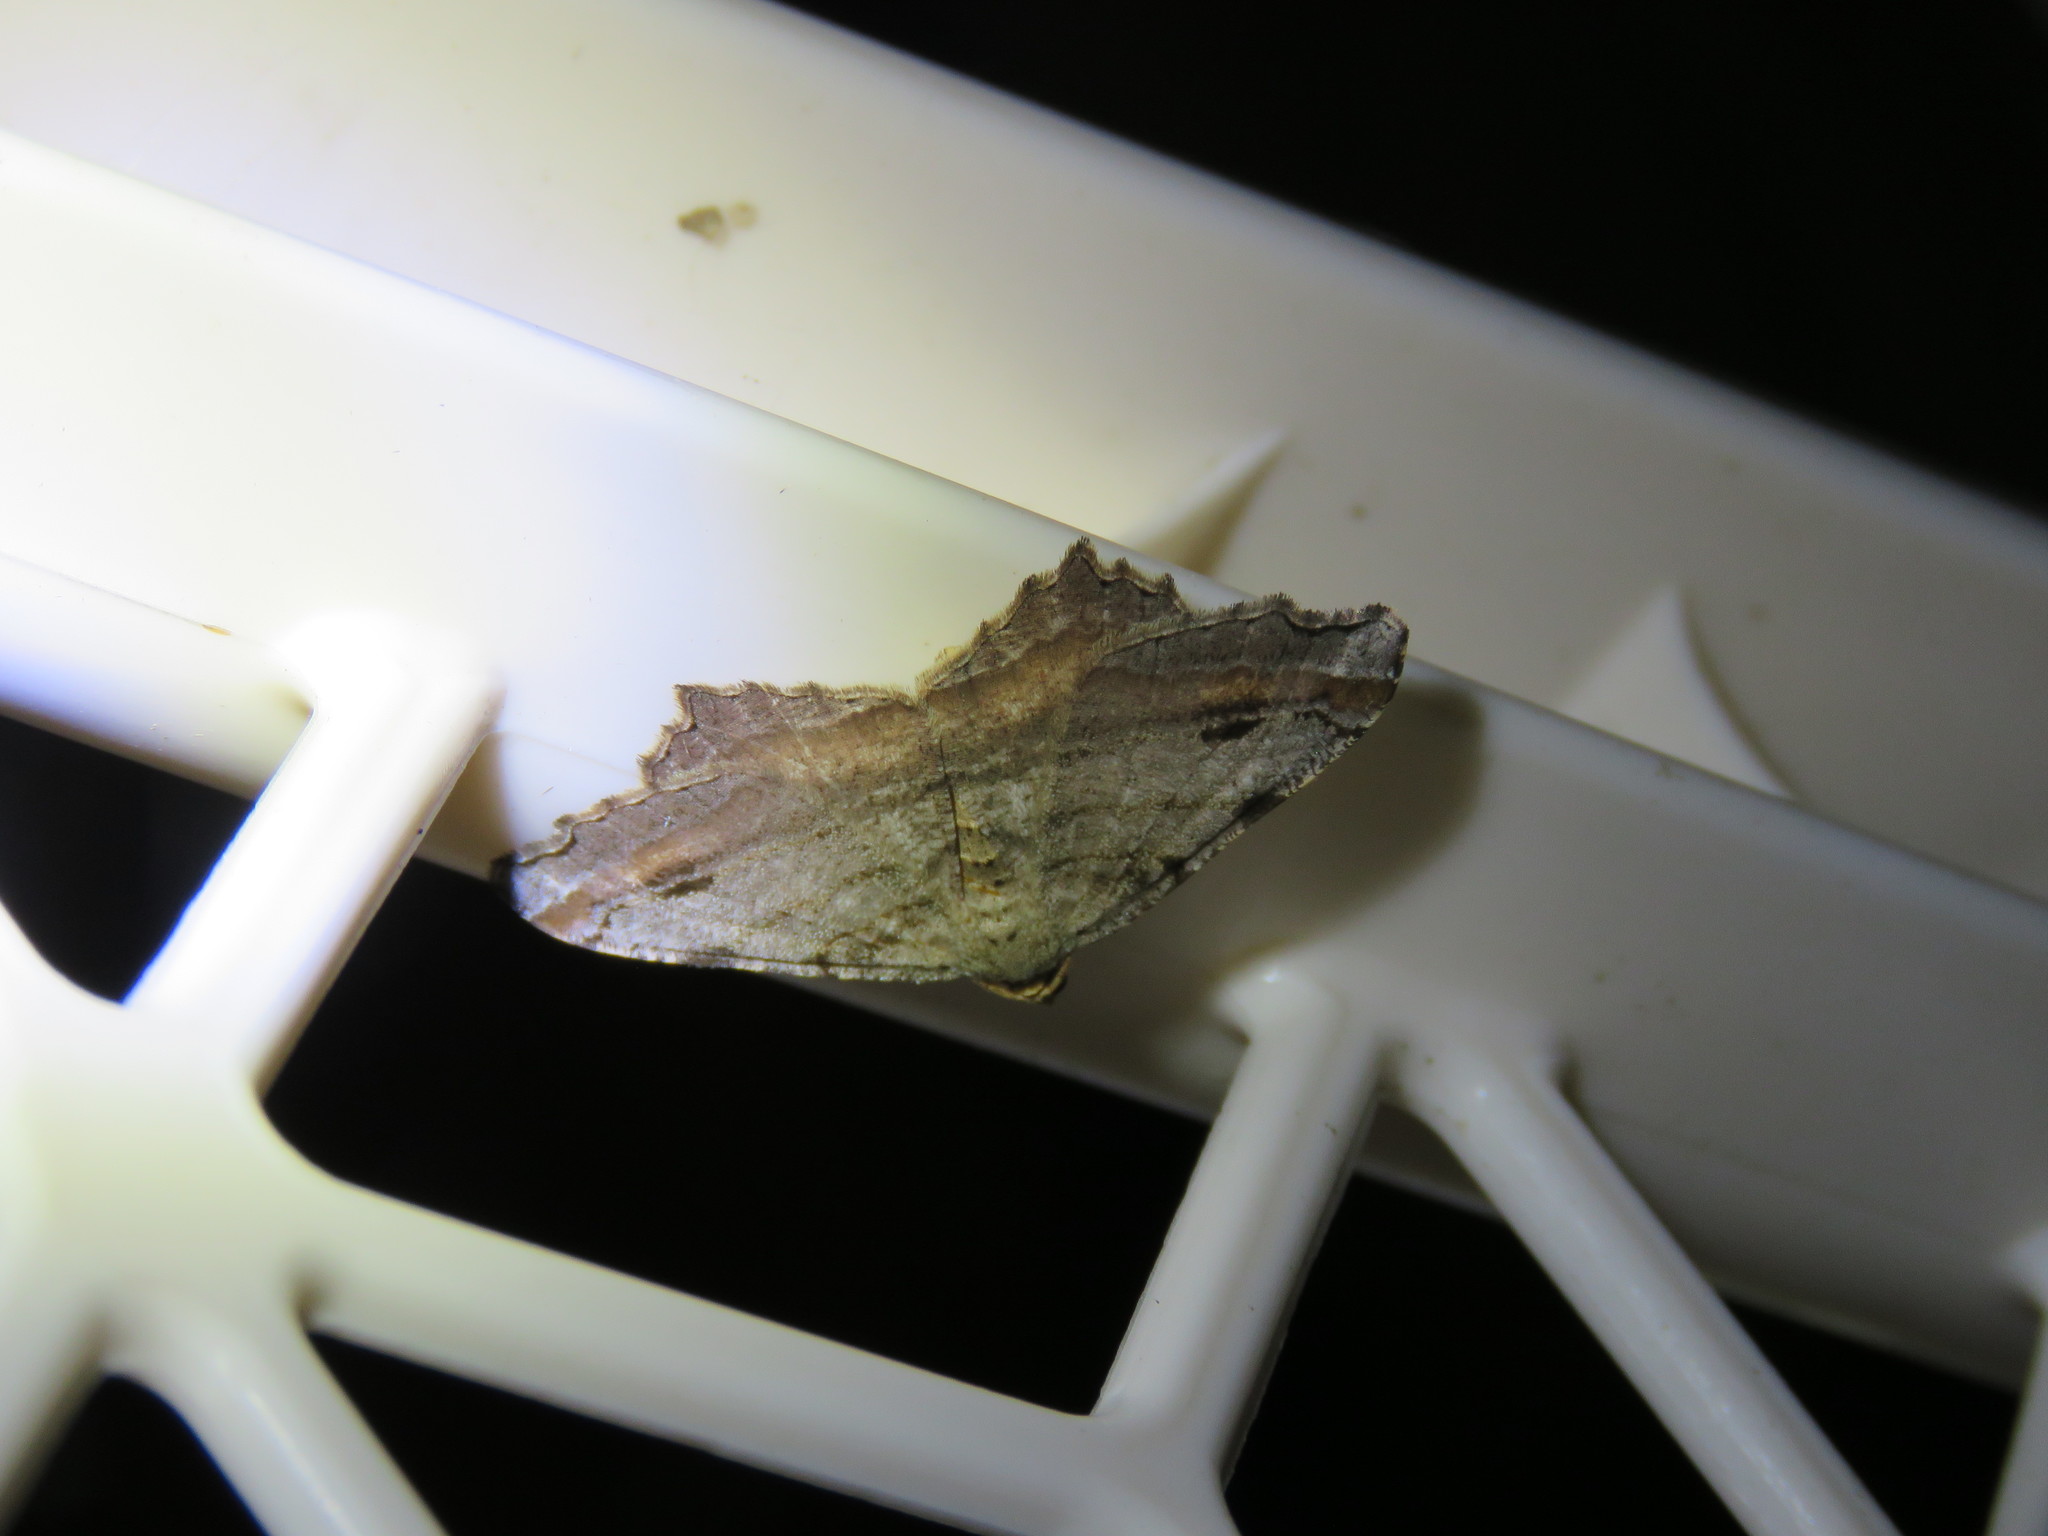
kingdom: Animalia
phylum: Arthropoda
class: Insecta
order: Lepidoptera
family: Geometridae
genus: Macaria
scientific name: Macaria multilineata
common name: Many-lined angle
